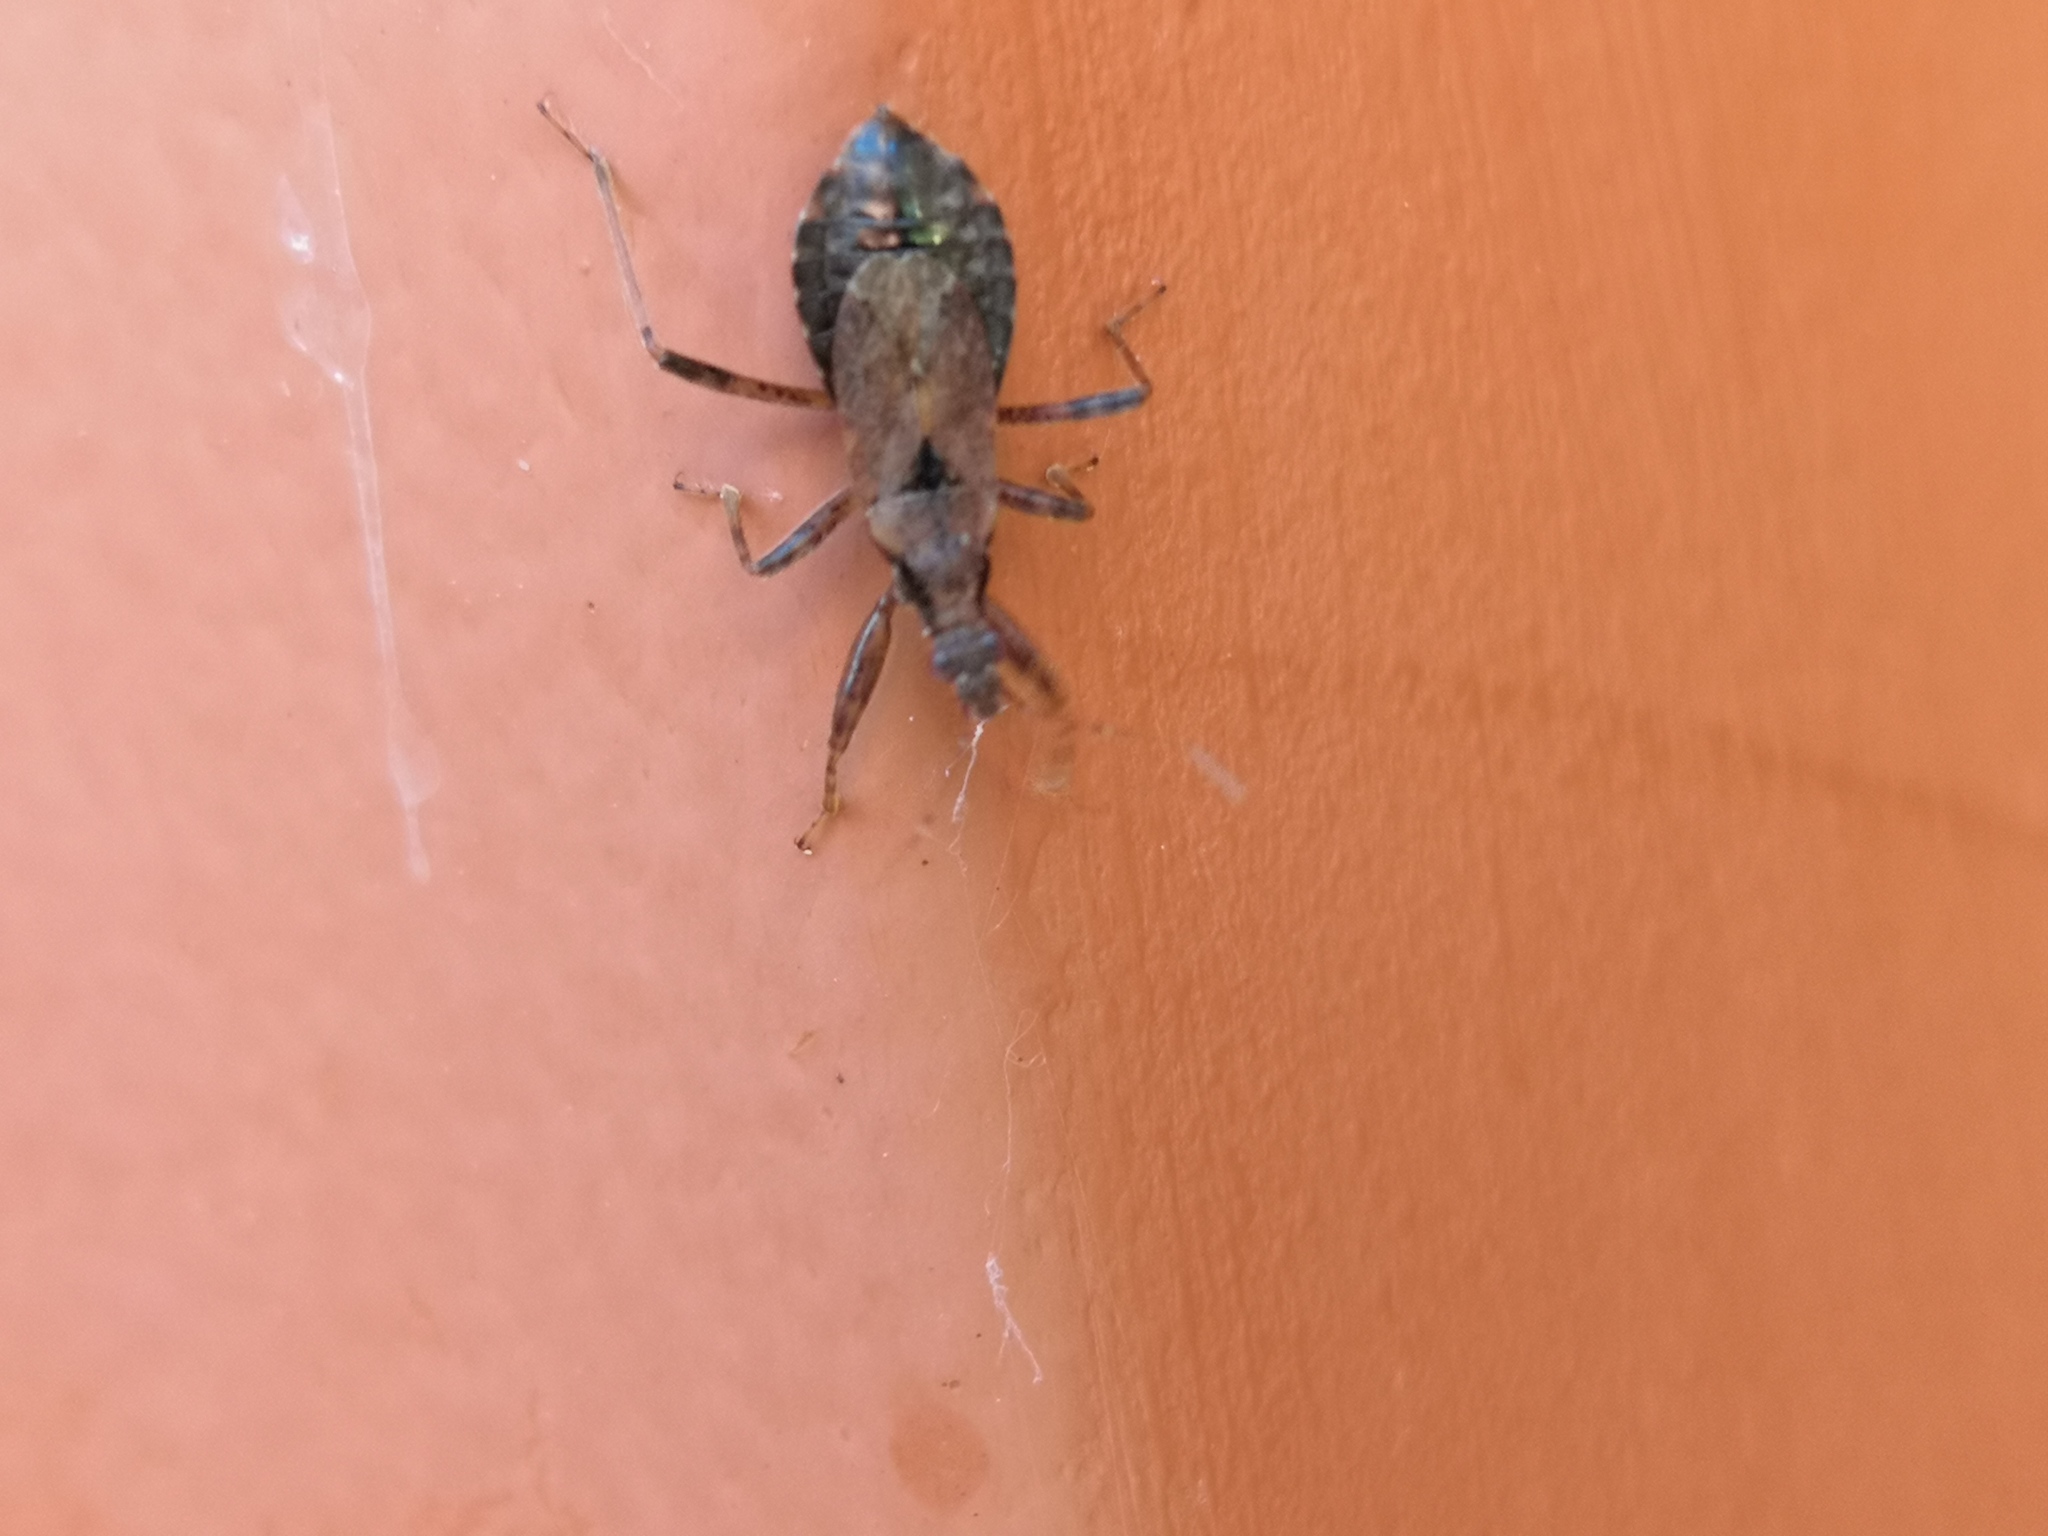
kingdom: Animalia
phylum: Arthropoda
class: Insecta
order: Hemiptera
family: Nabidae
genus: Himacerus
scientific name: Himacerus mirmicoides
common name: Ant damsel bug
